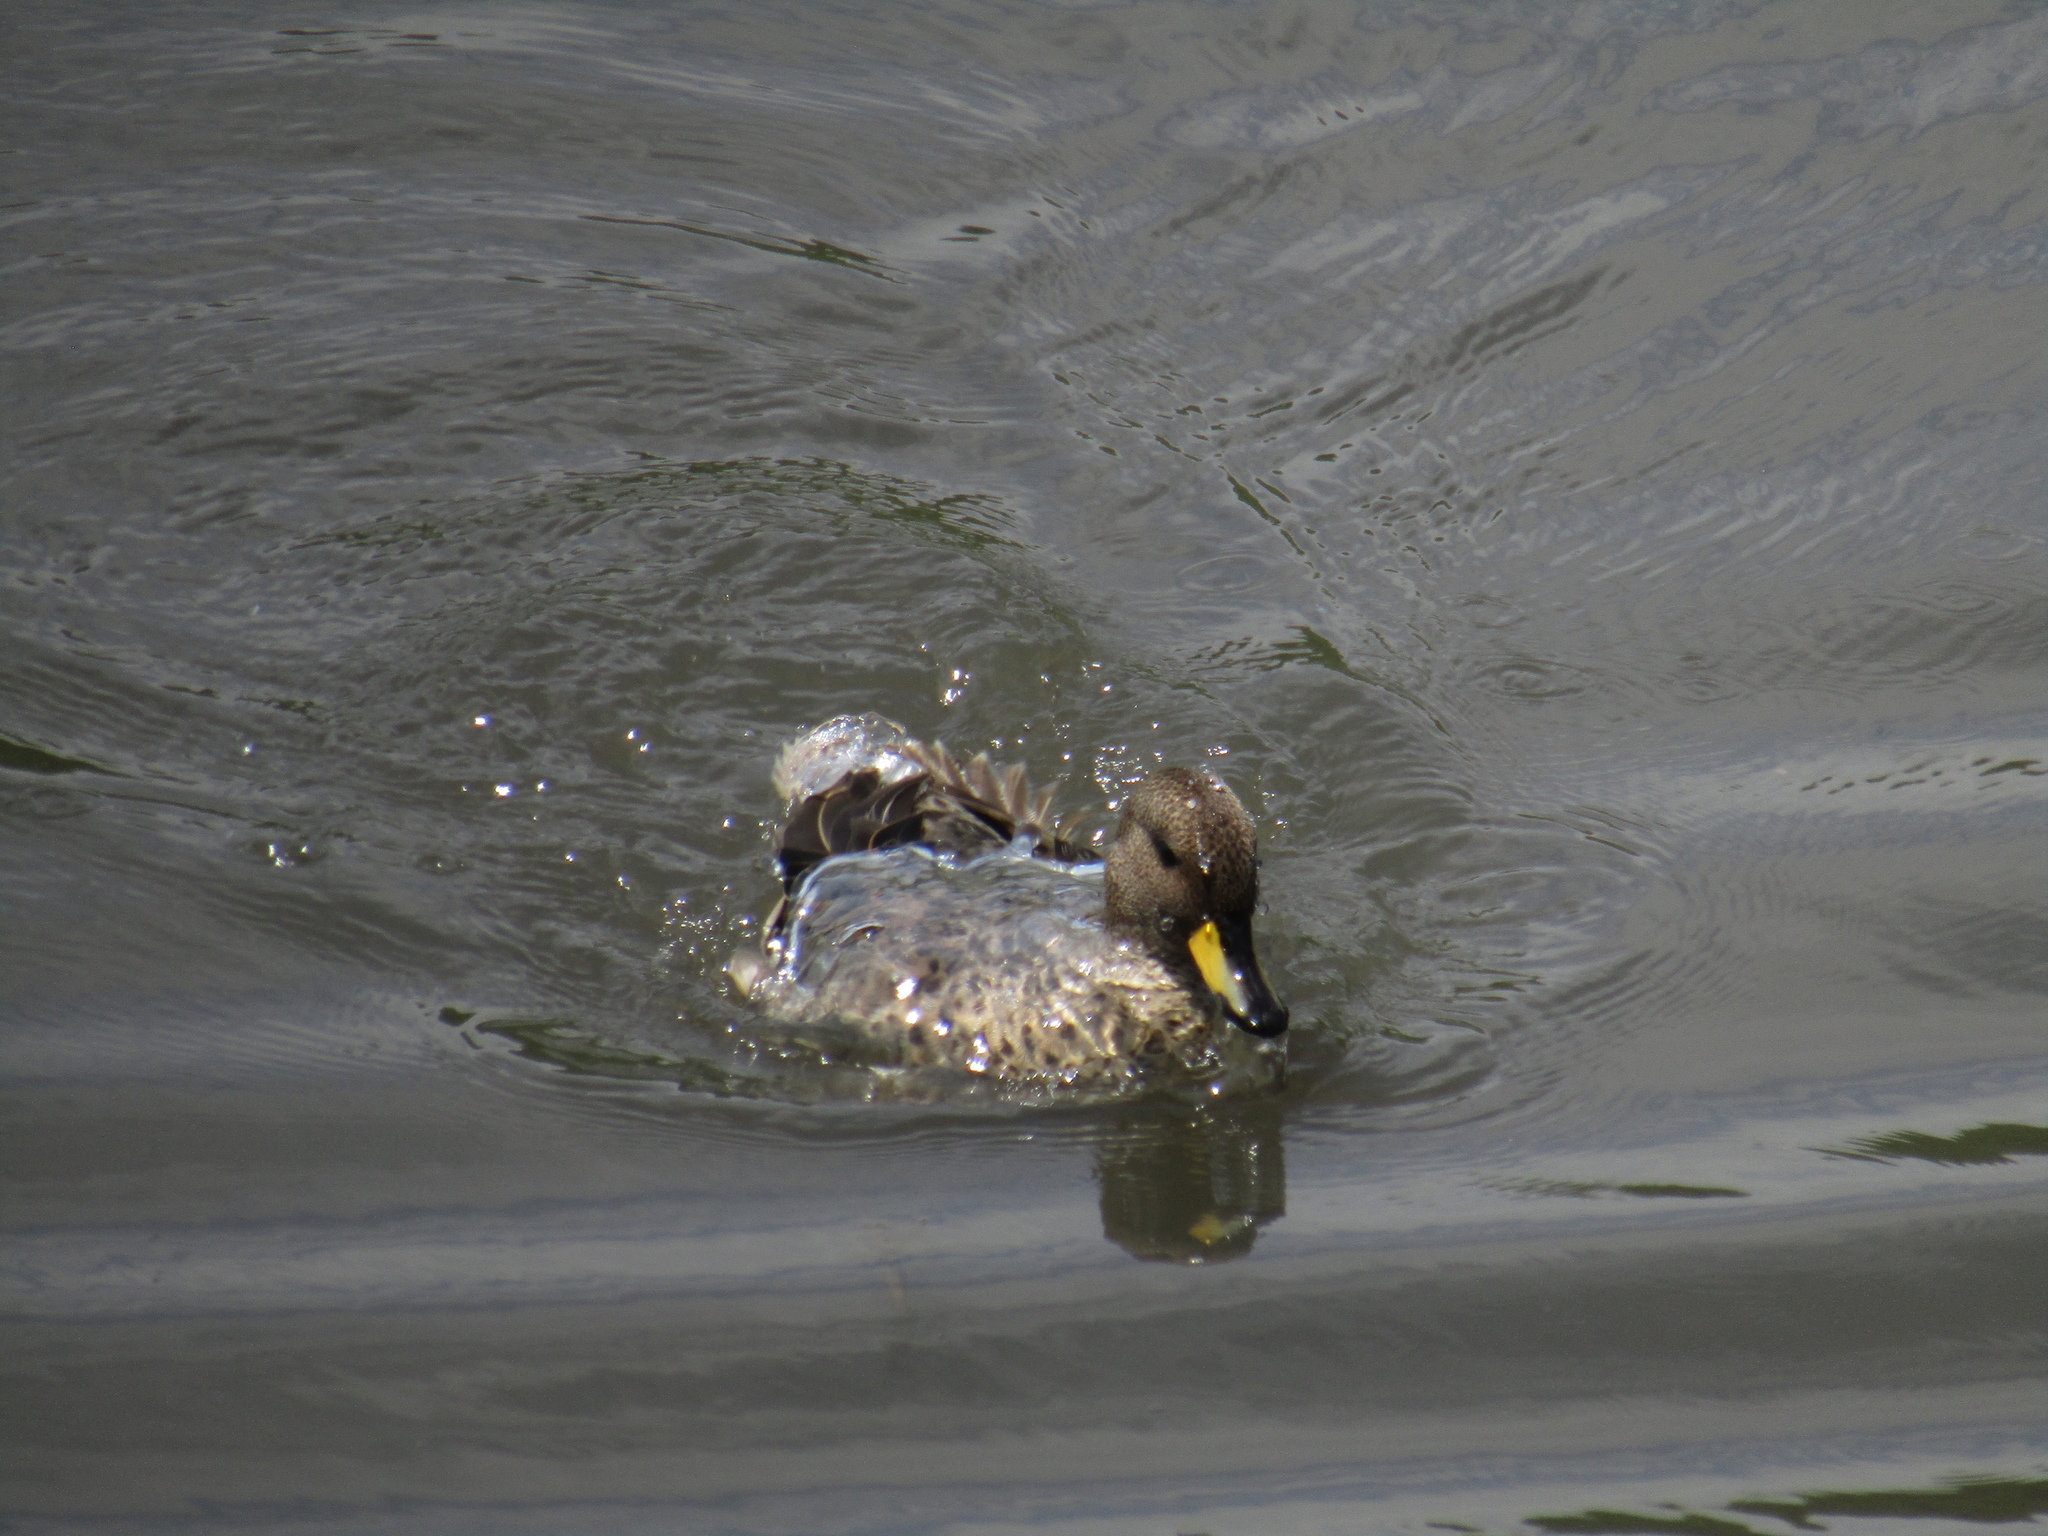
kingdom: Animalia
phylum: Chordata
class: Aves
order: Anseriformes
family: Anatidae
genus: Anas
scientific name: Anas flavirostris
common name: Yellow-billed teal
